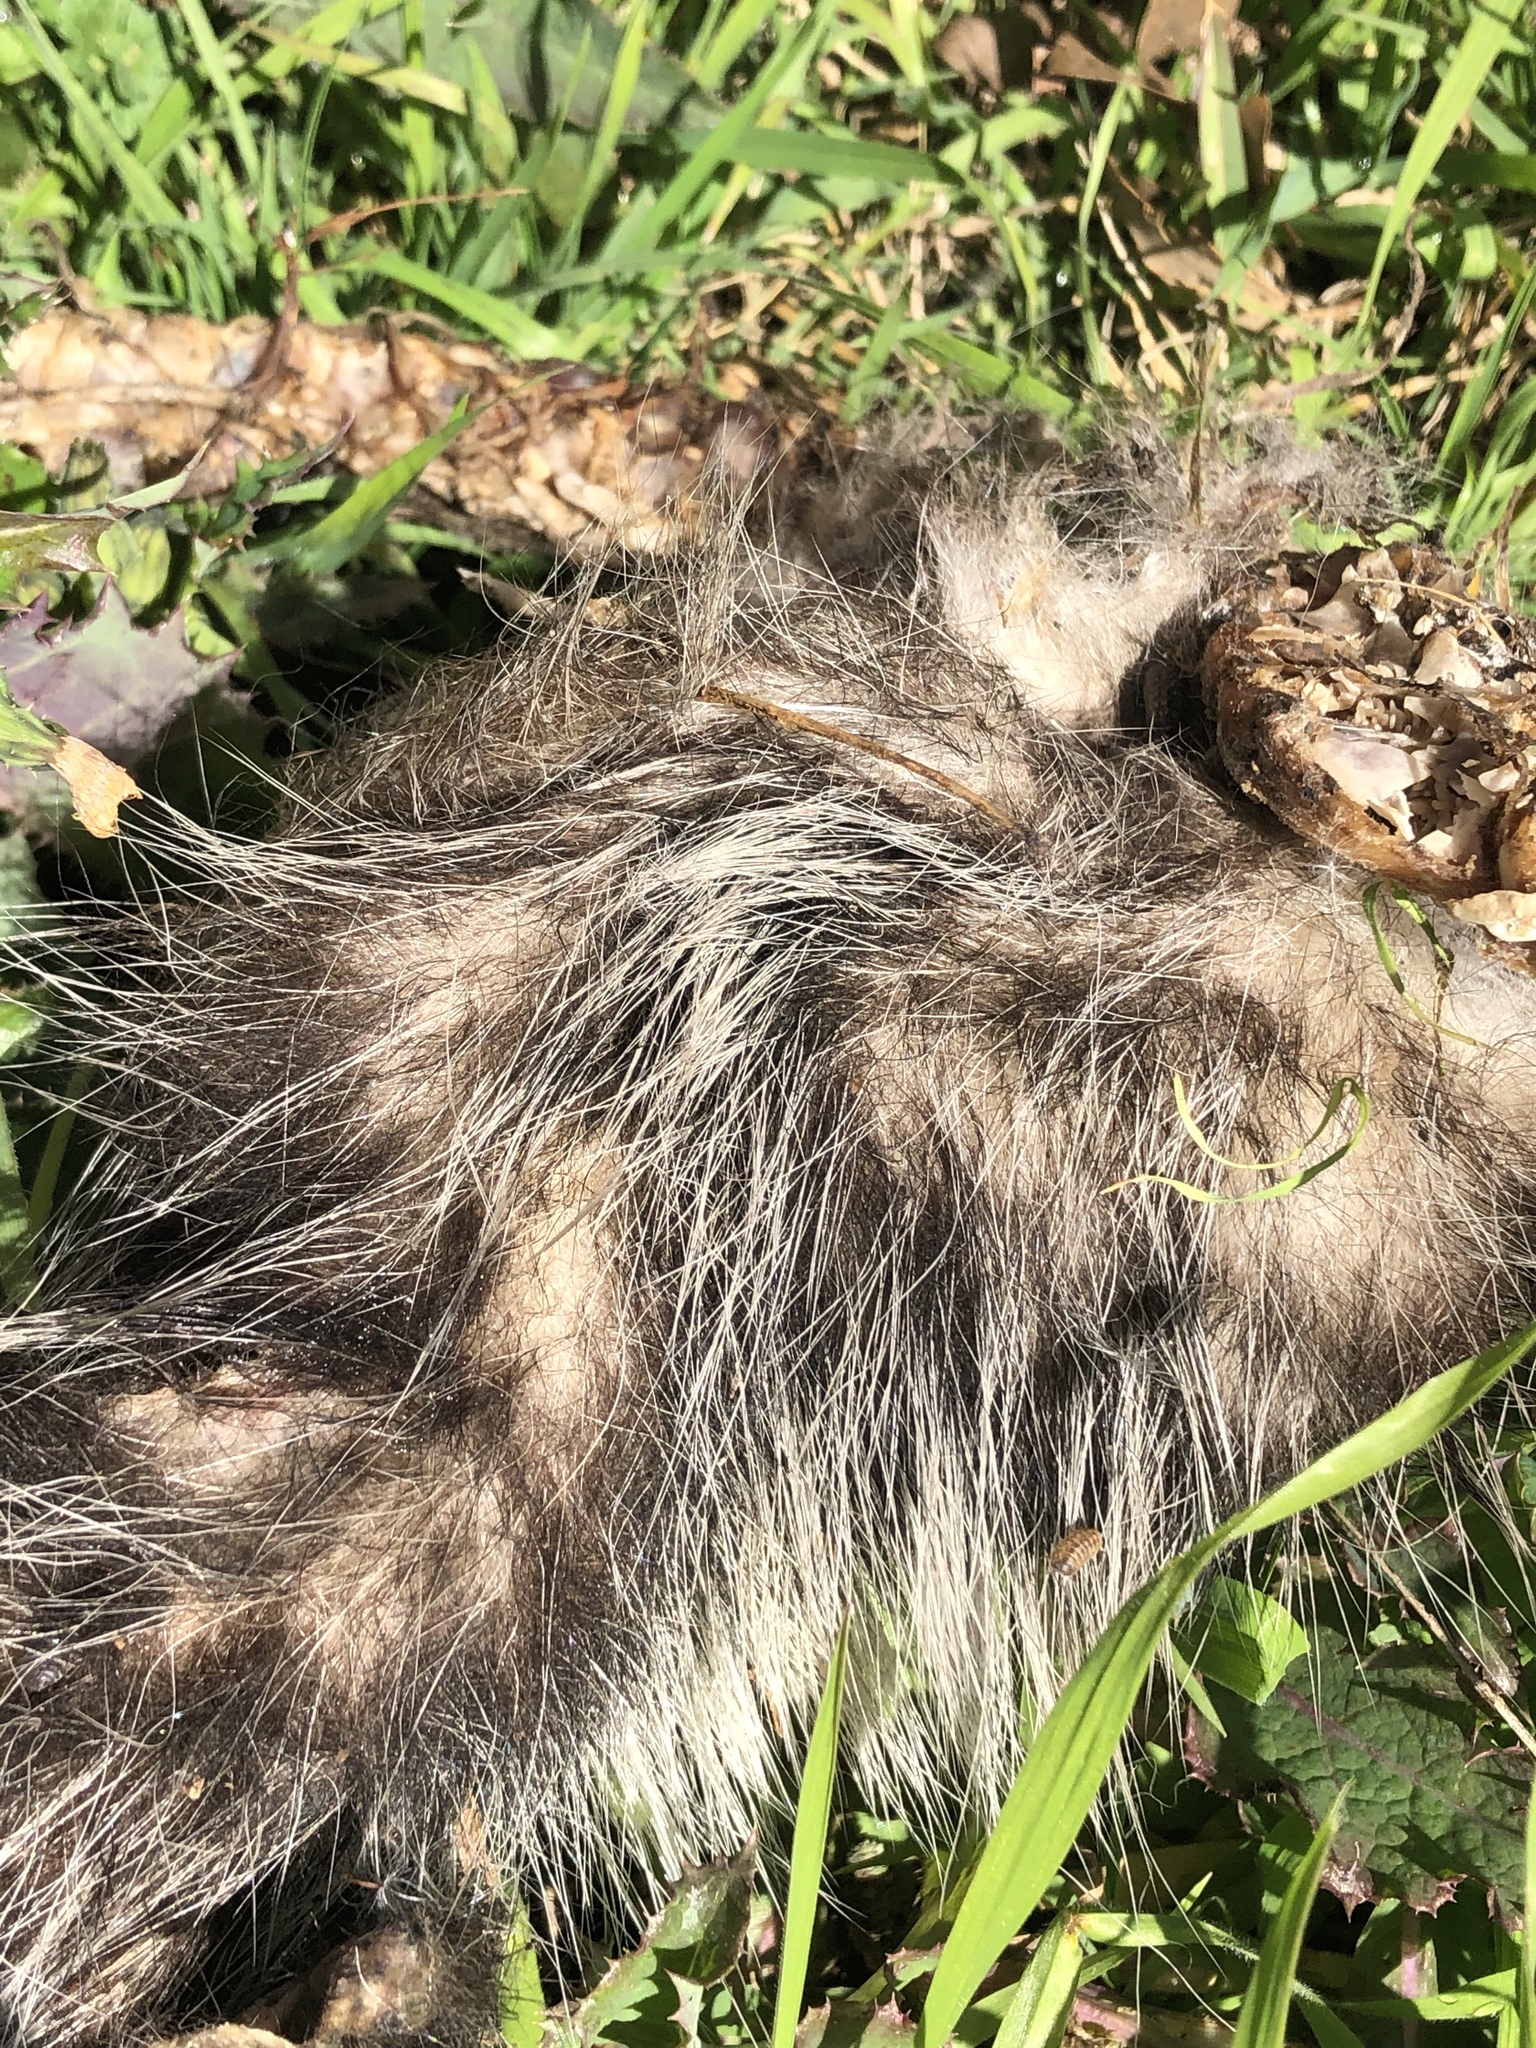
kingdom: Animalia
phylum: Chordata
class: Mammalia
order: Didelphimorphia
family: Didelphidae
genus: Didelphis
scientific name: Didelphis virginiana
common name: Virginia opossum
